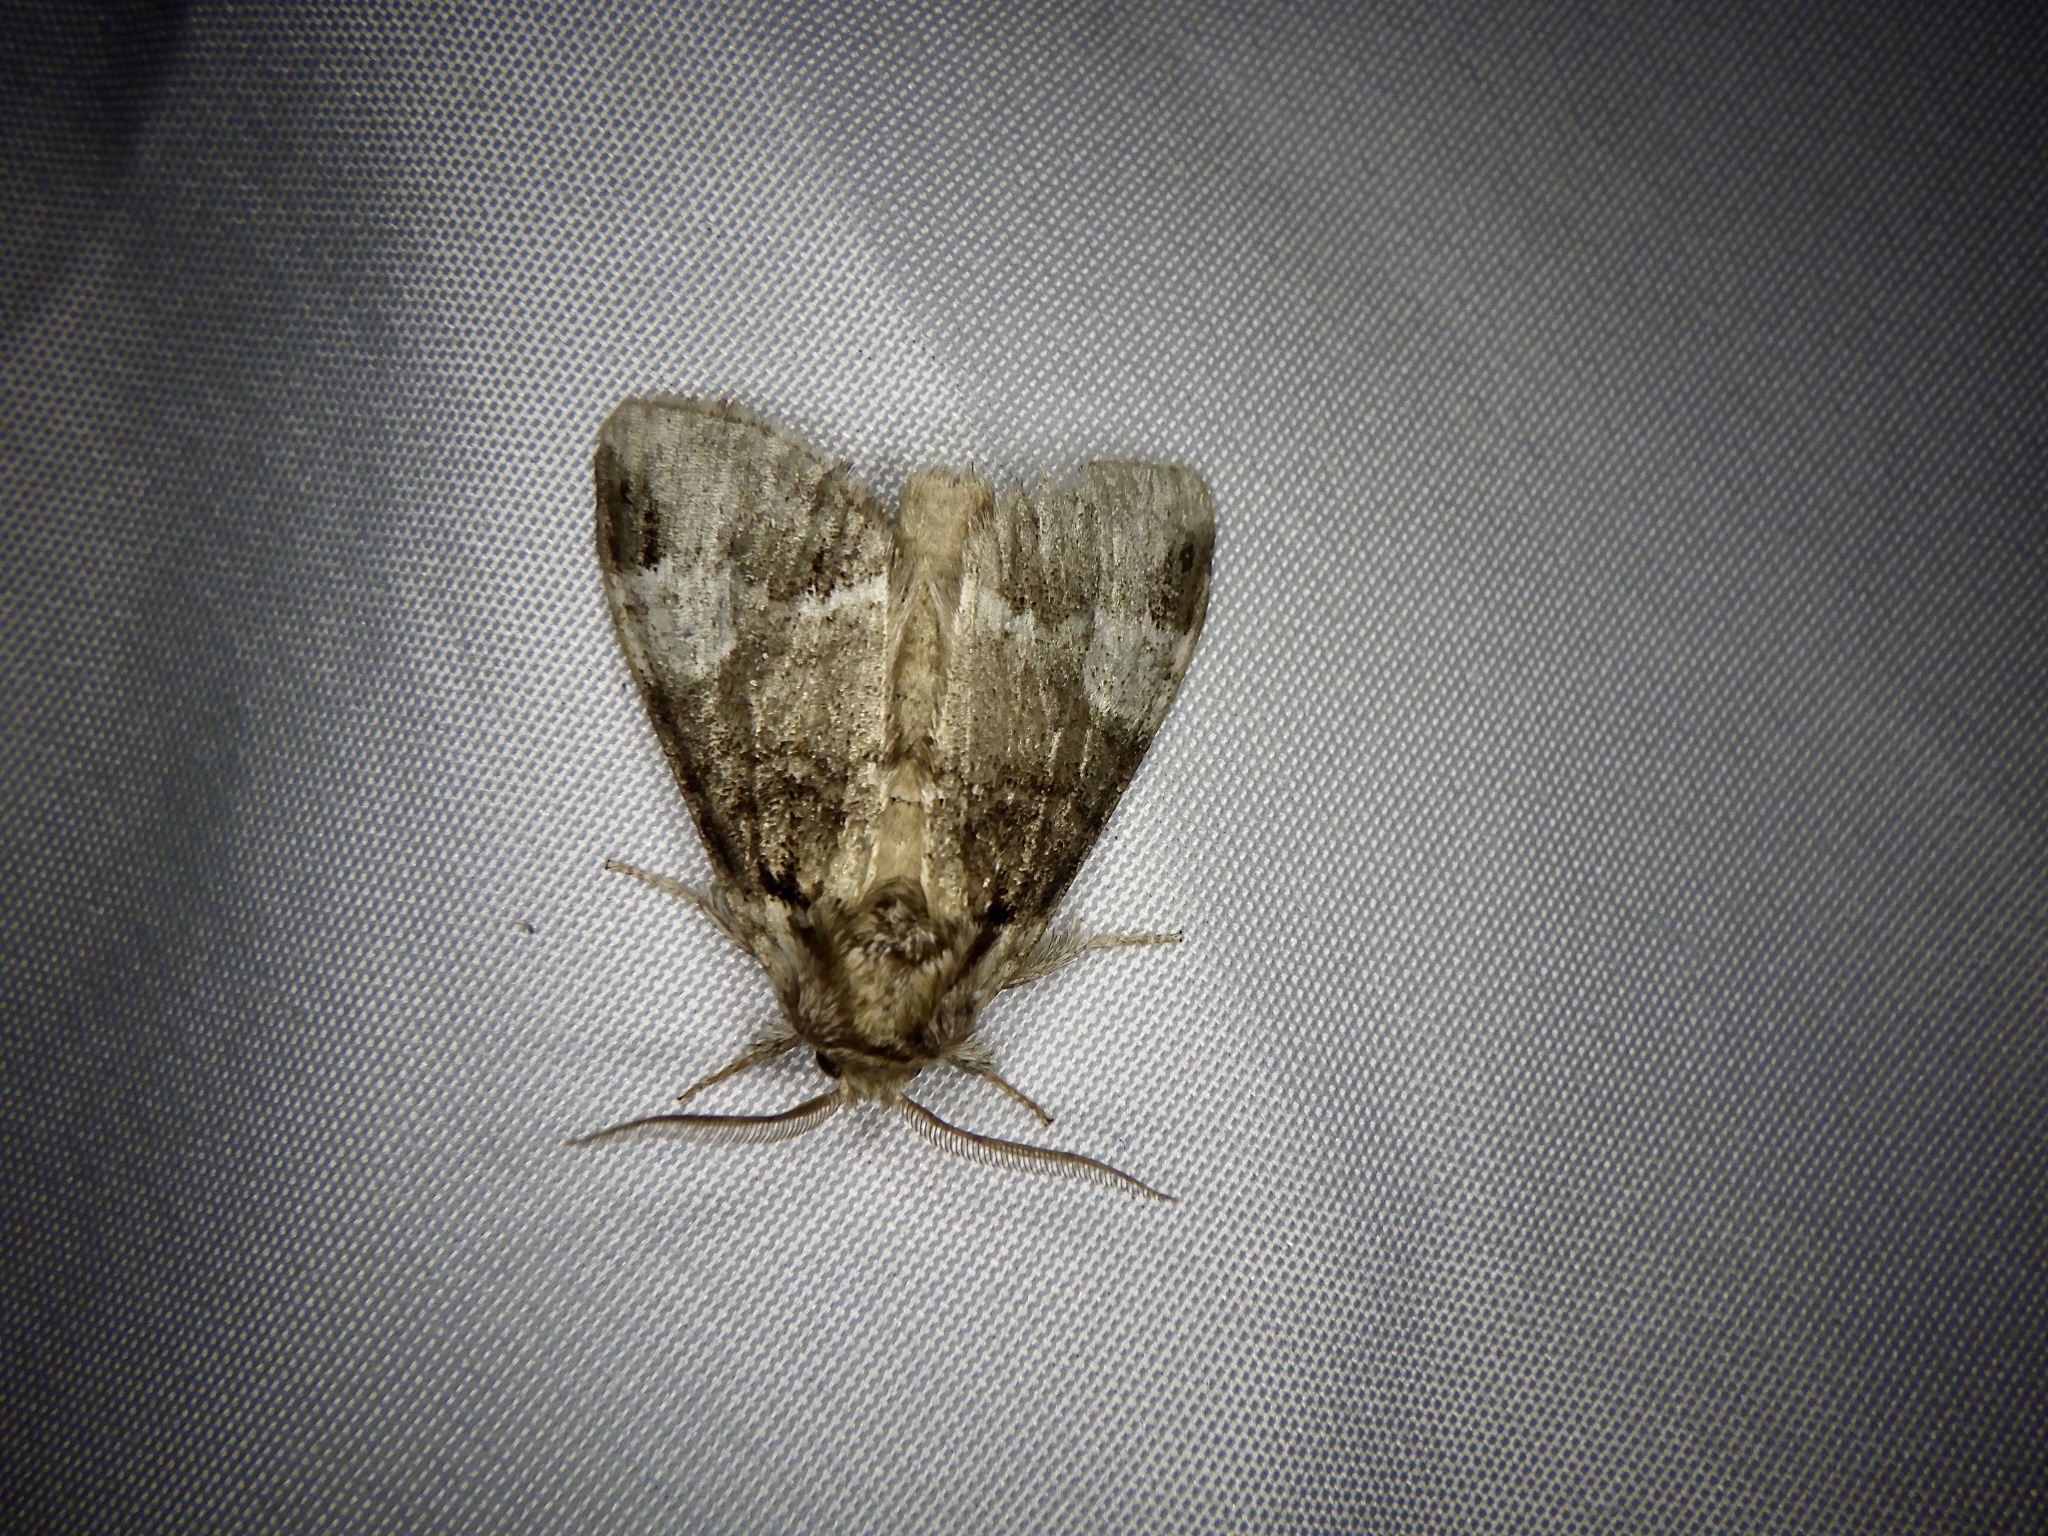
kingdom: Animalia
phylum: Arthropoda
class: Insecta
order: Lepidoptera
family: Notodontidae
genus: Drymonia
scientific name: Drymonia japonica
